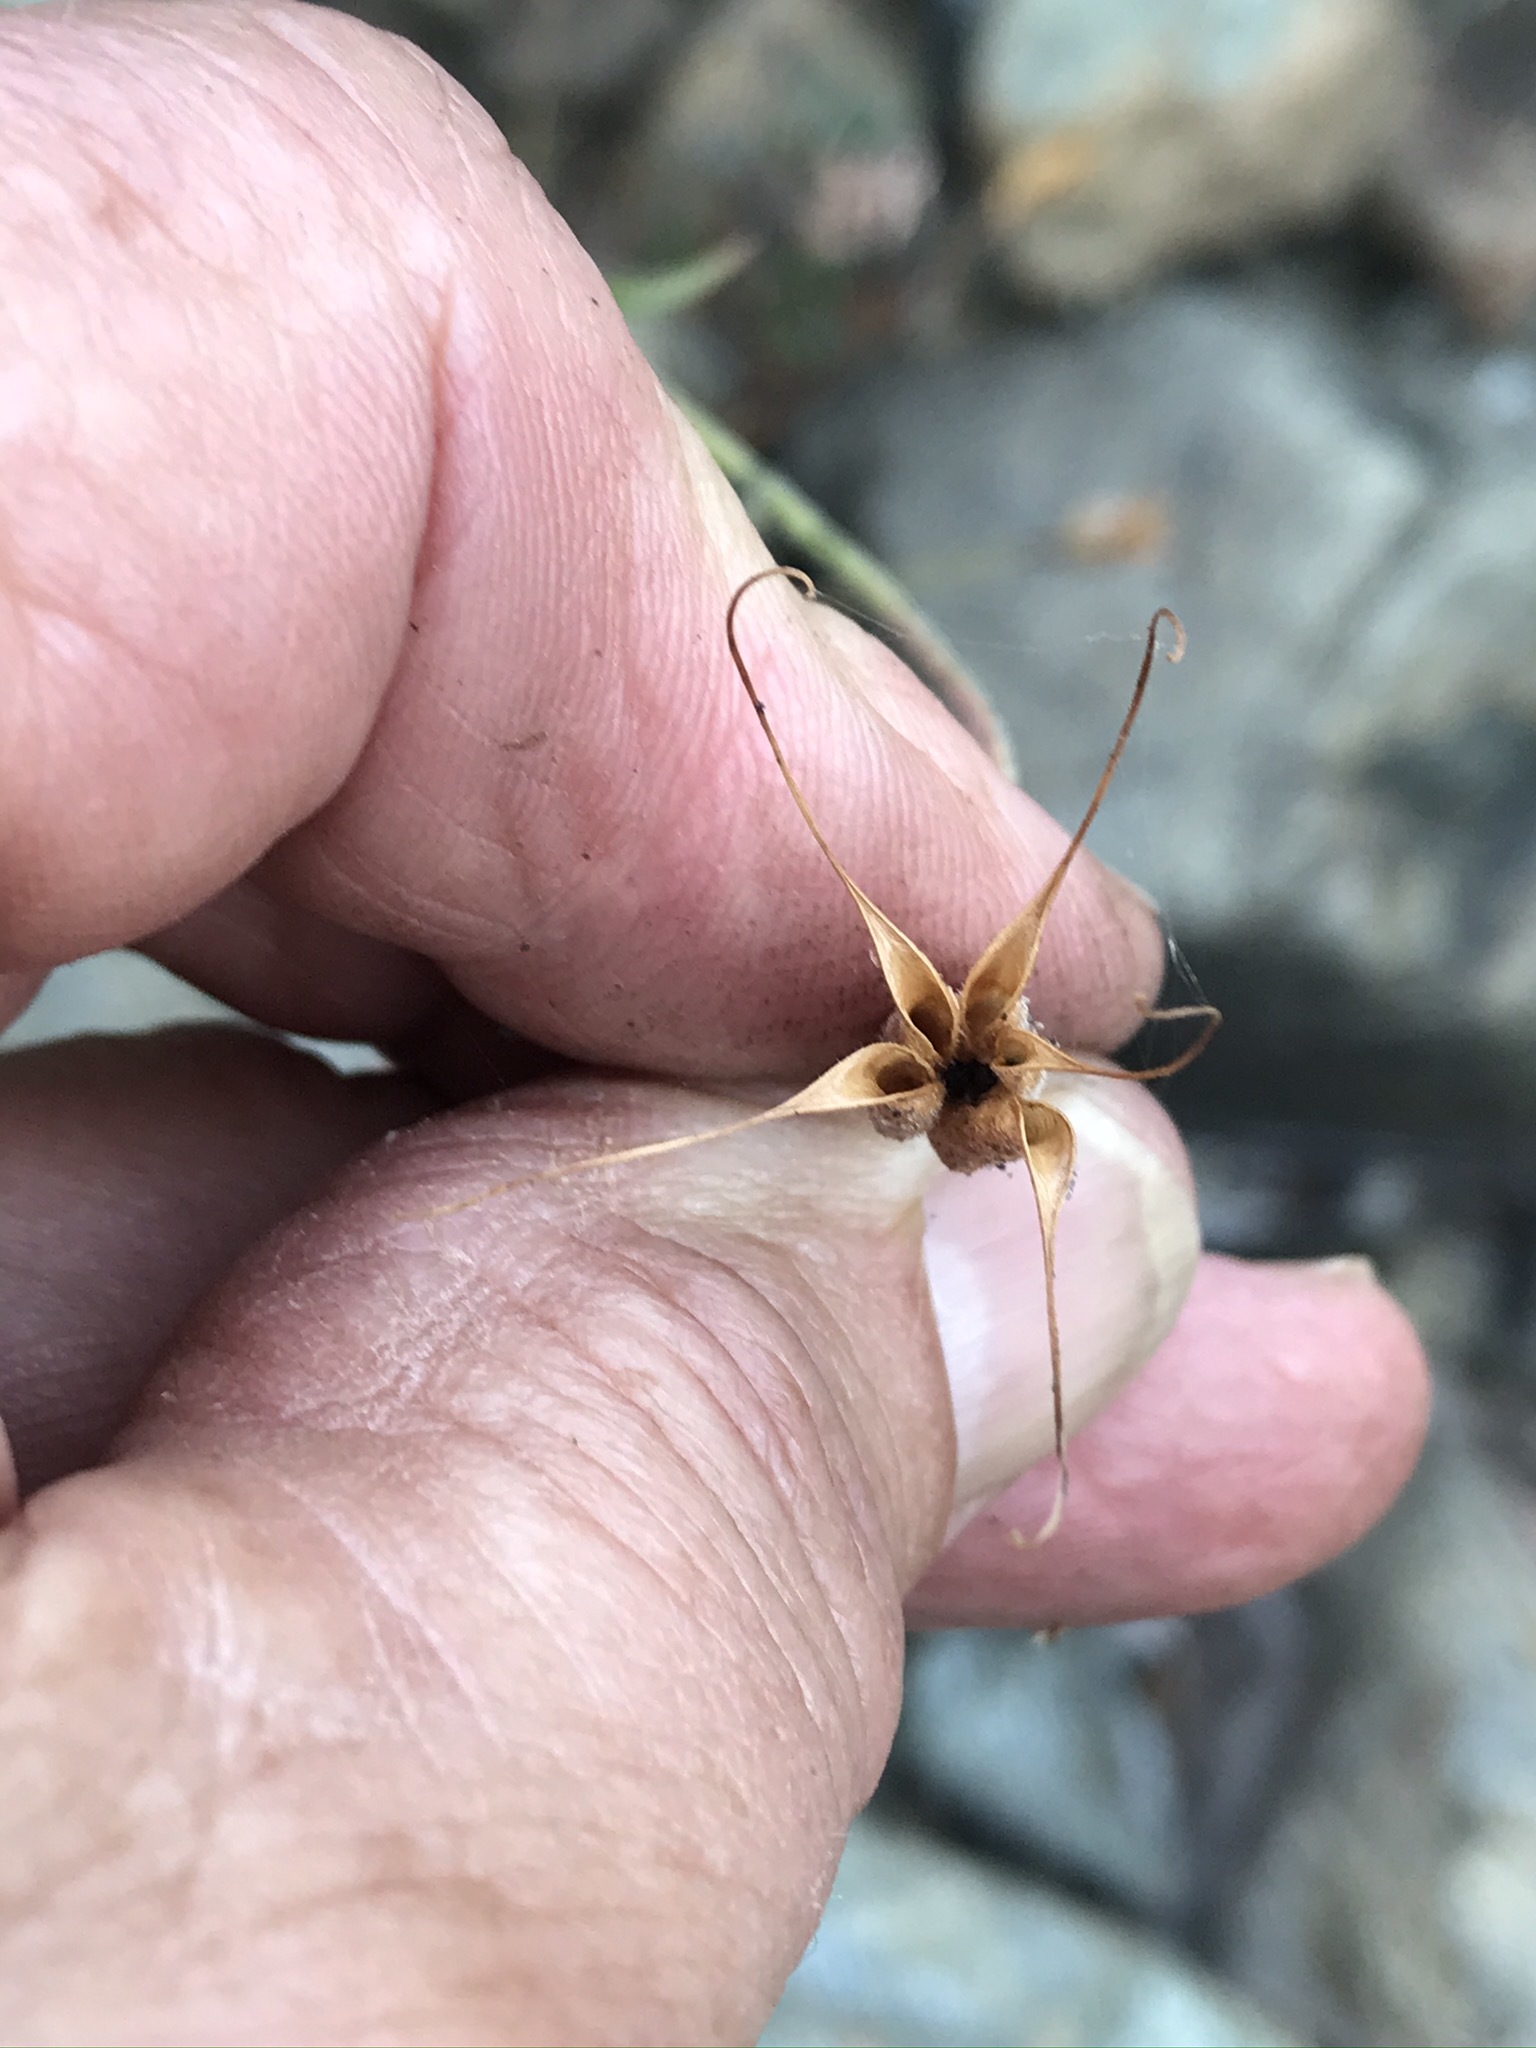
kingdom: Plantae
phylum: Tracheophyta
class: Magnoliopsida
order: Ranunculales
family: Ranunculaceae
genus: Aquilegia
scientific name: Aquilegia eximia
